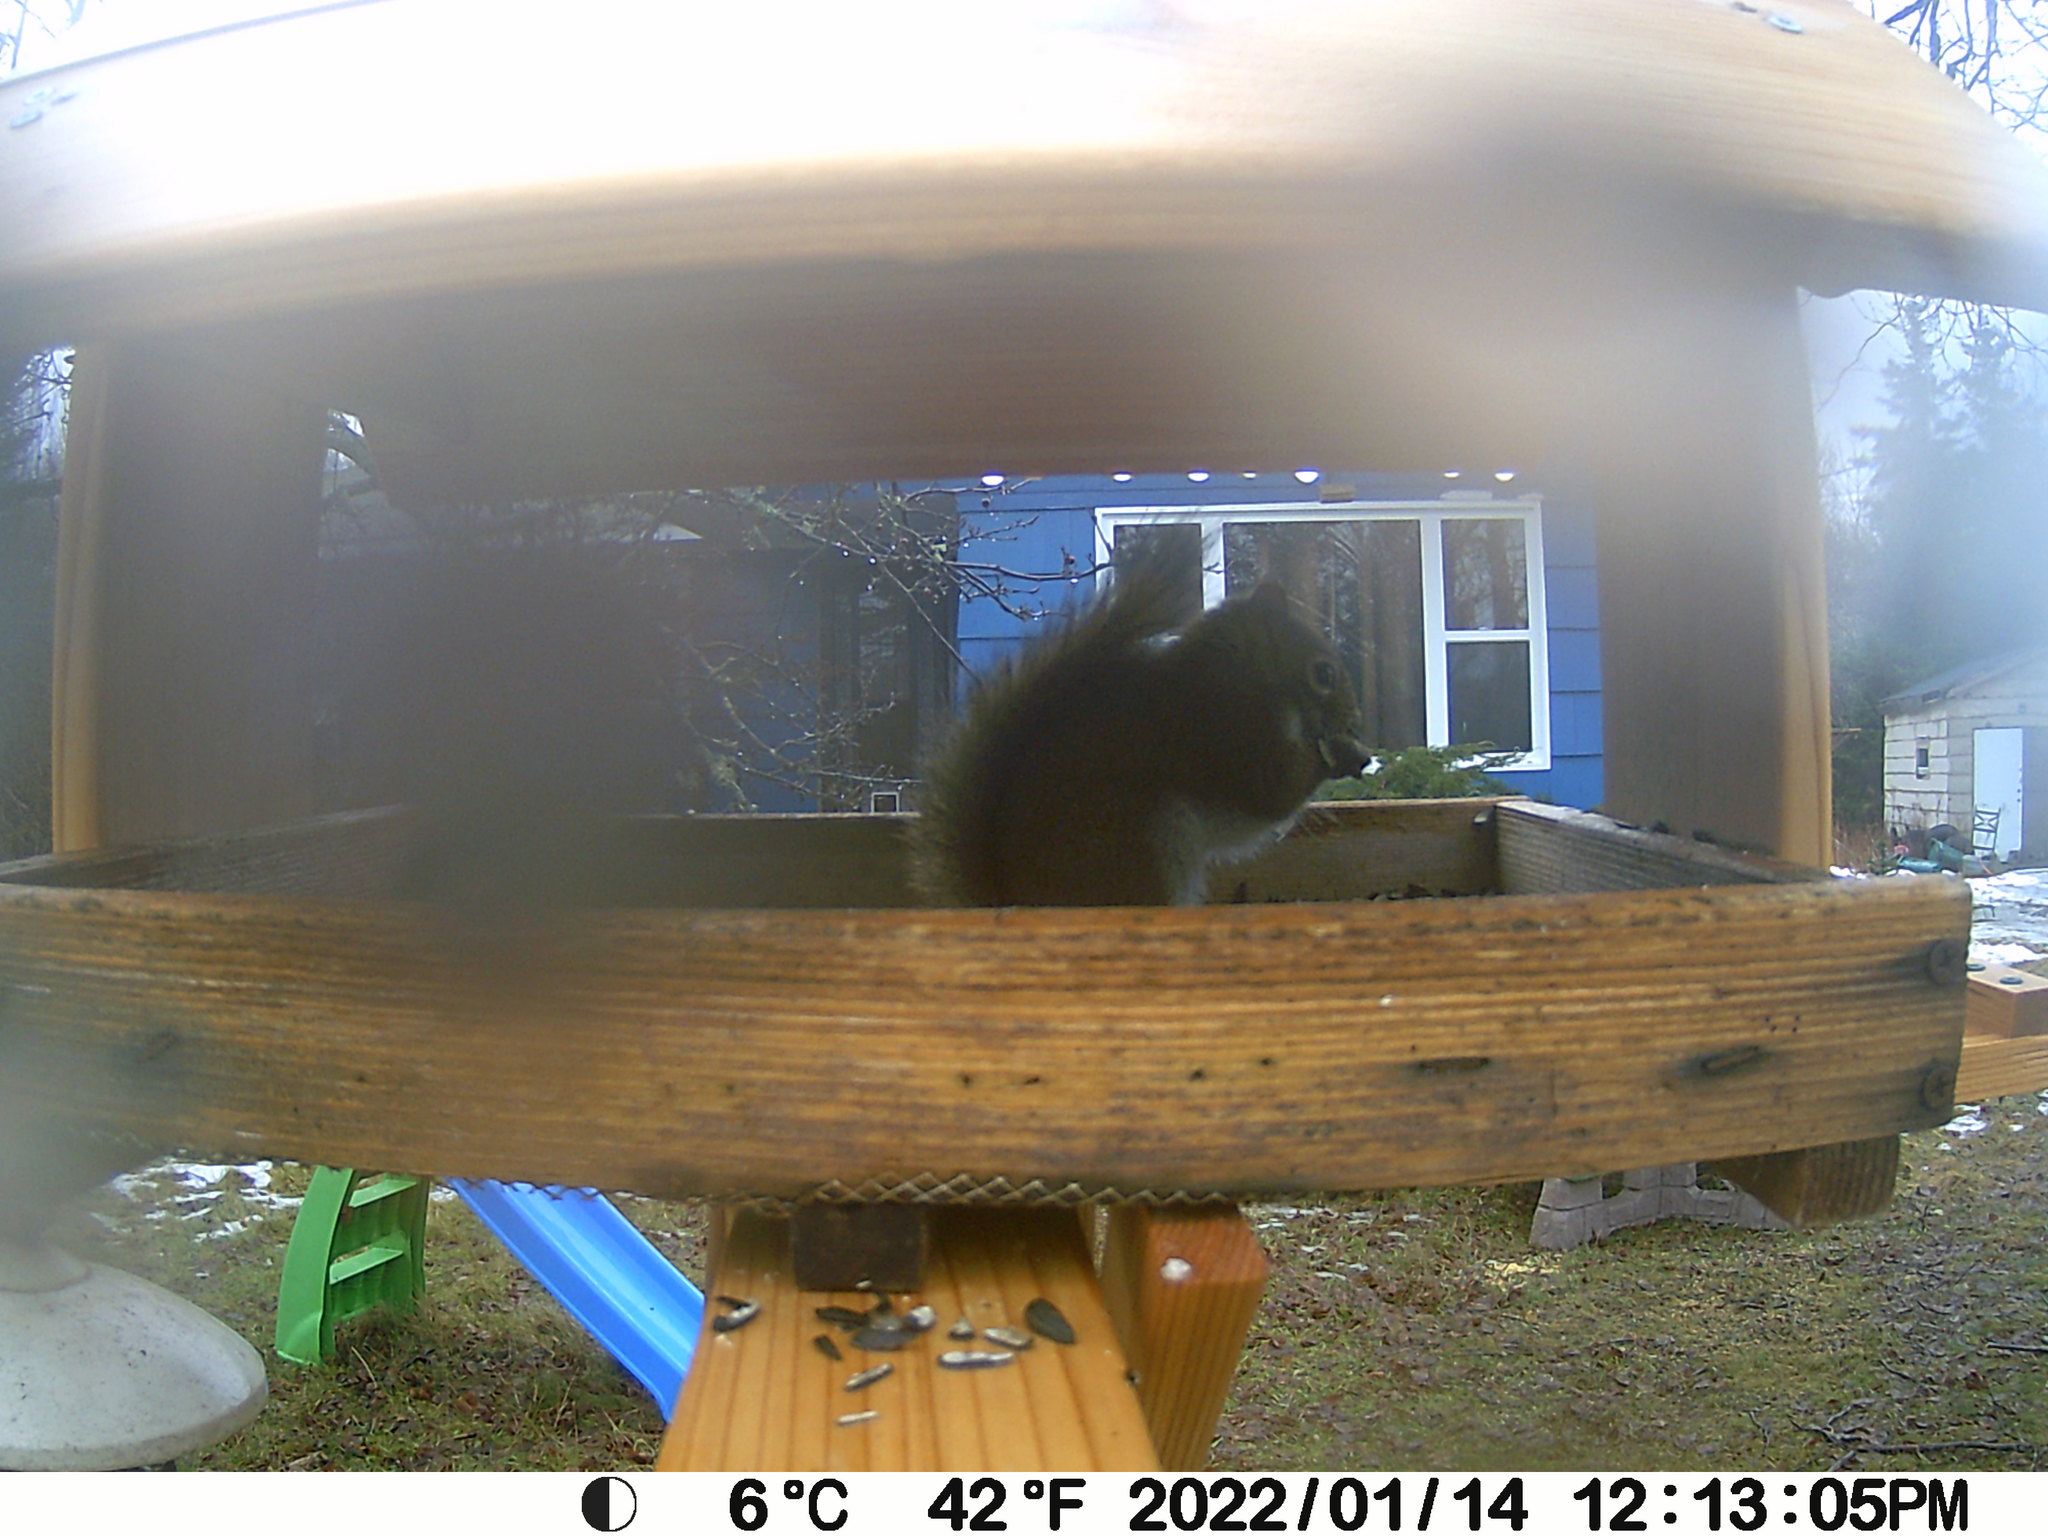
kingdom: Animalia
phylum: Chordata
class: Mammalia
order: Rodentia
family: Sciuridae
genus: Tamiasciurus
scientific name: Tamiasciurus hudsonicus
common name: Red squirrel
